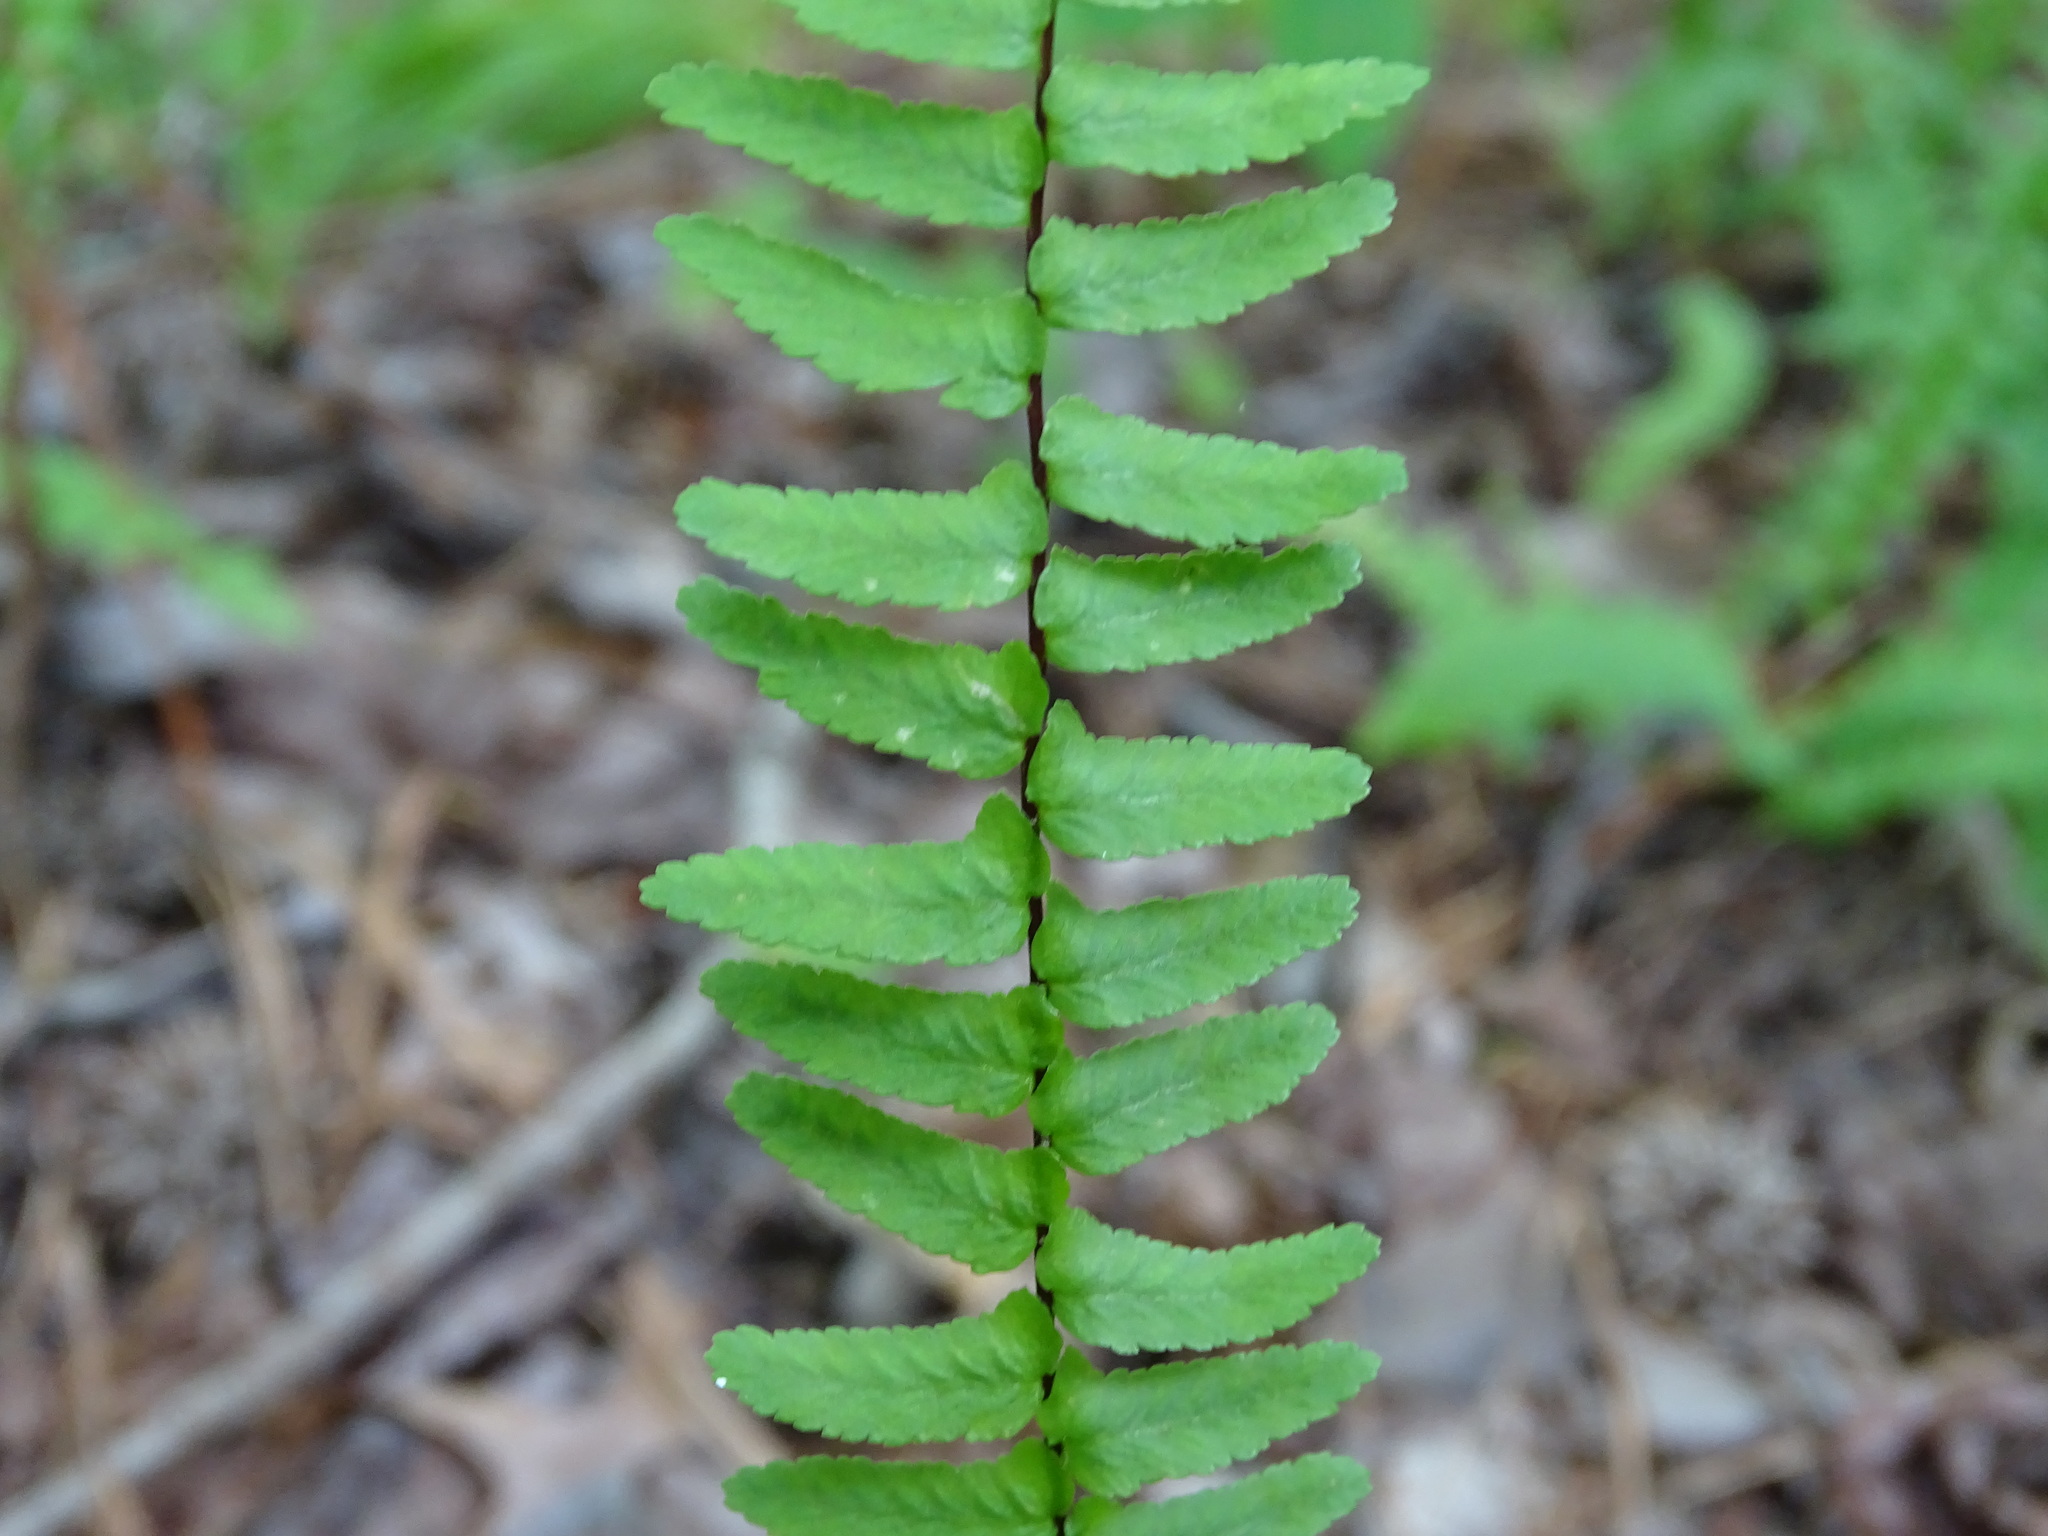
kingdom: Plantae
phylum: Tracheophyta
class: Polypodiopsida
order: Polypodiales
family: Aspleniaceae
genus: Asplenium
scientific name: Asplenium platyneuron
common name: Ebony spleenwort
